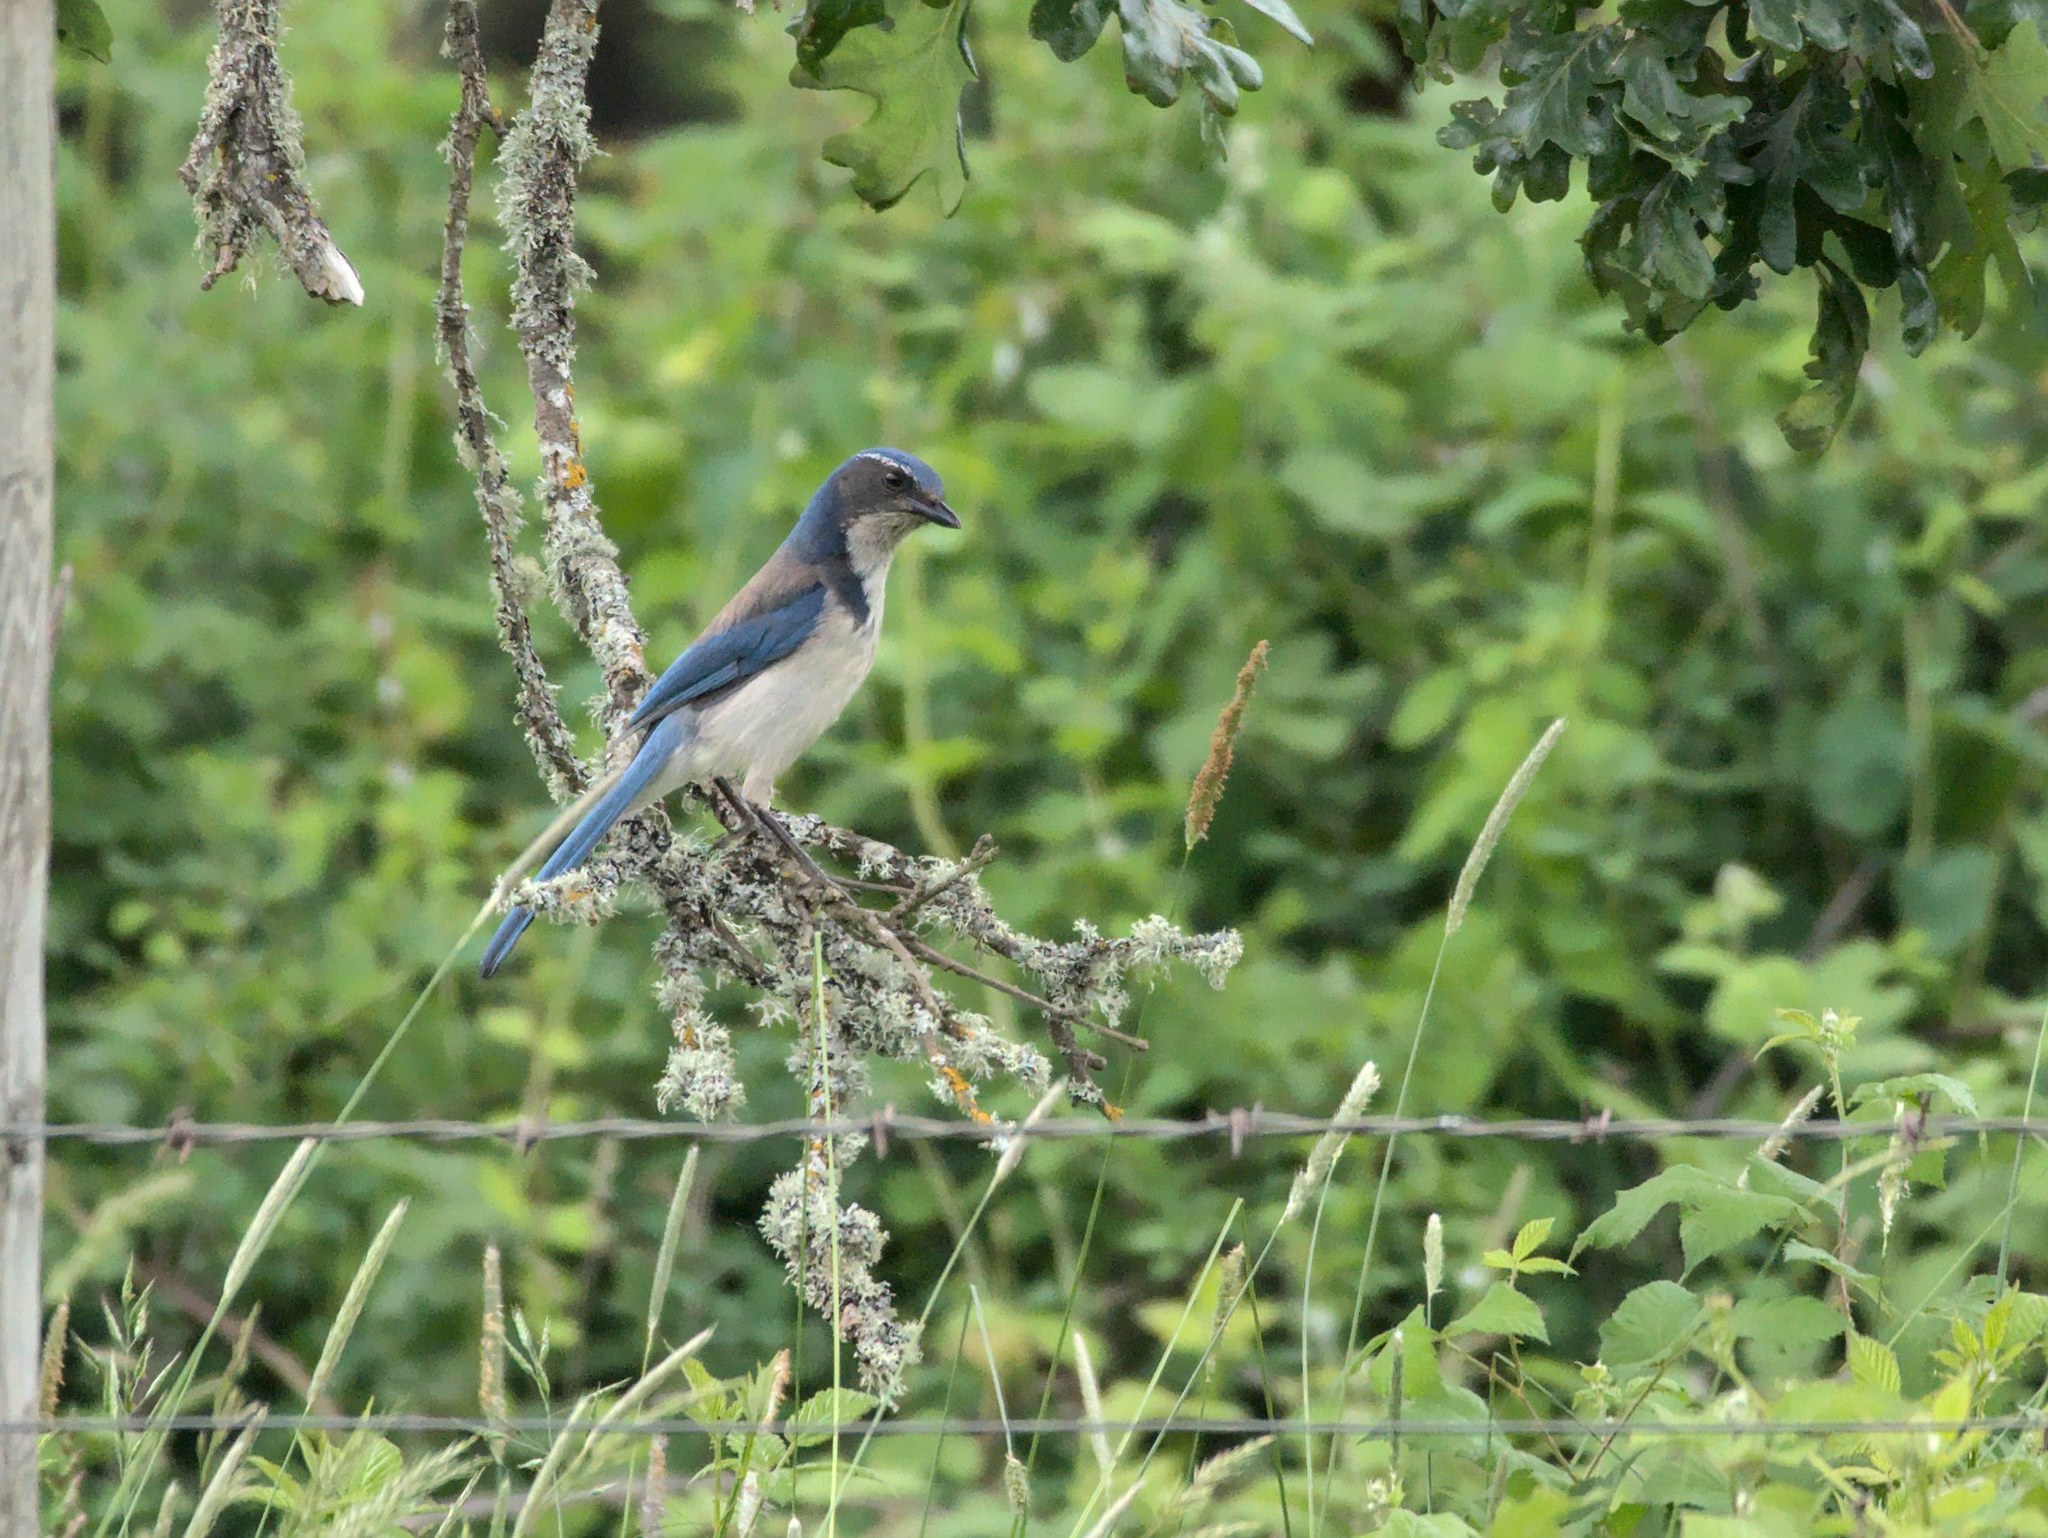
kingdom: Animalia
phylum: Chordata
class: Aves
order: Passeriformes
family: Corvidae
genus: Aphelocoma
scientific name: Aphelocoma californica
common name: California scrub-jay
